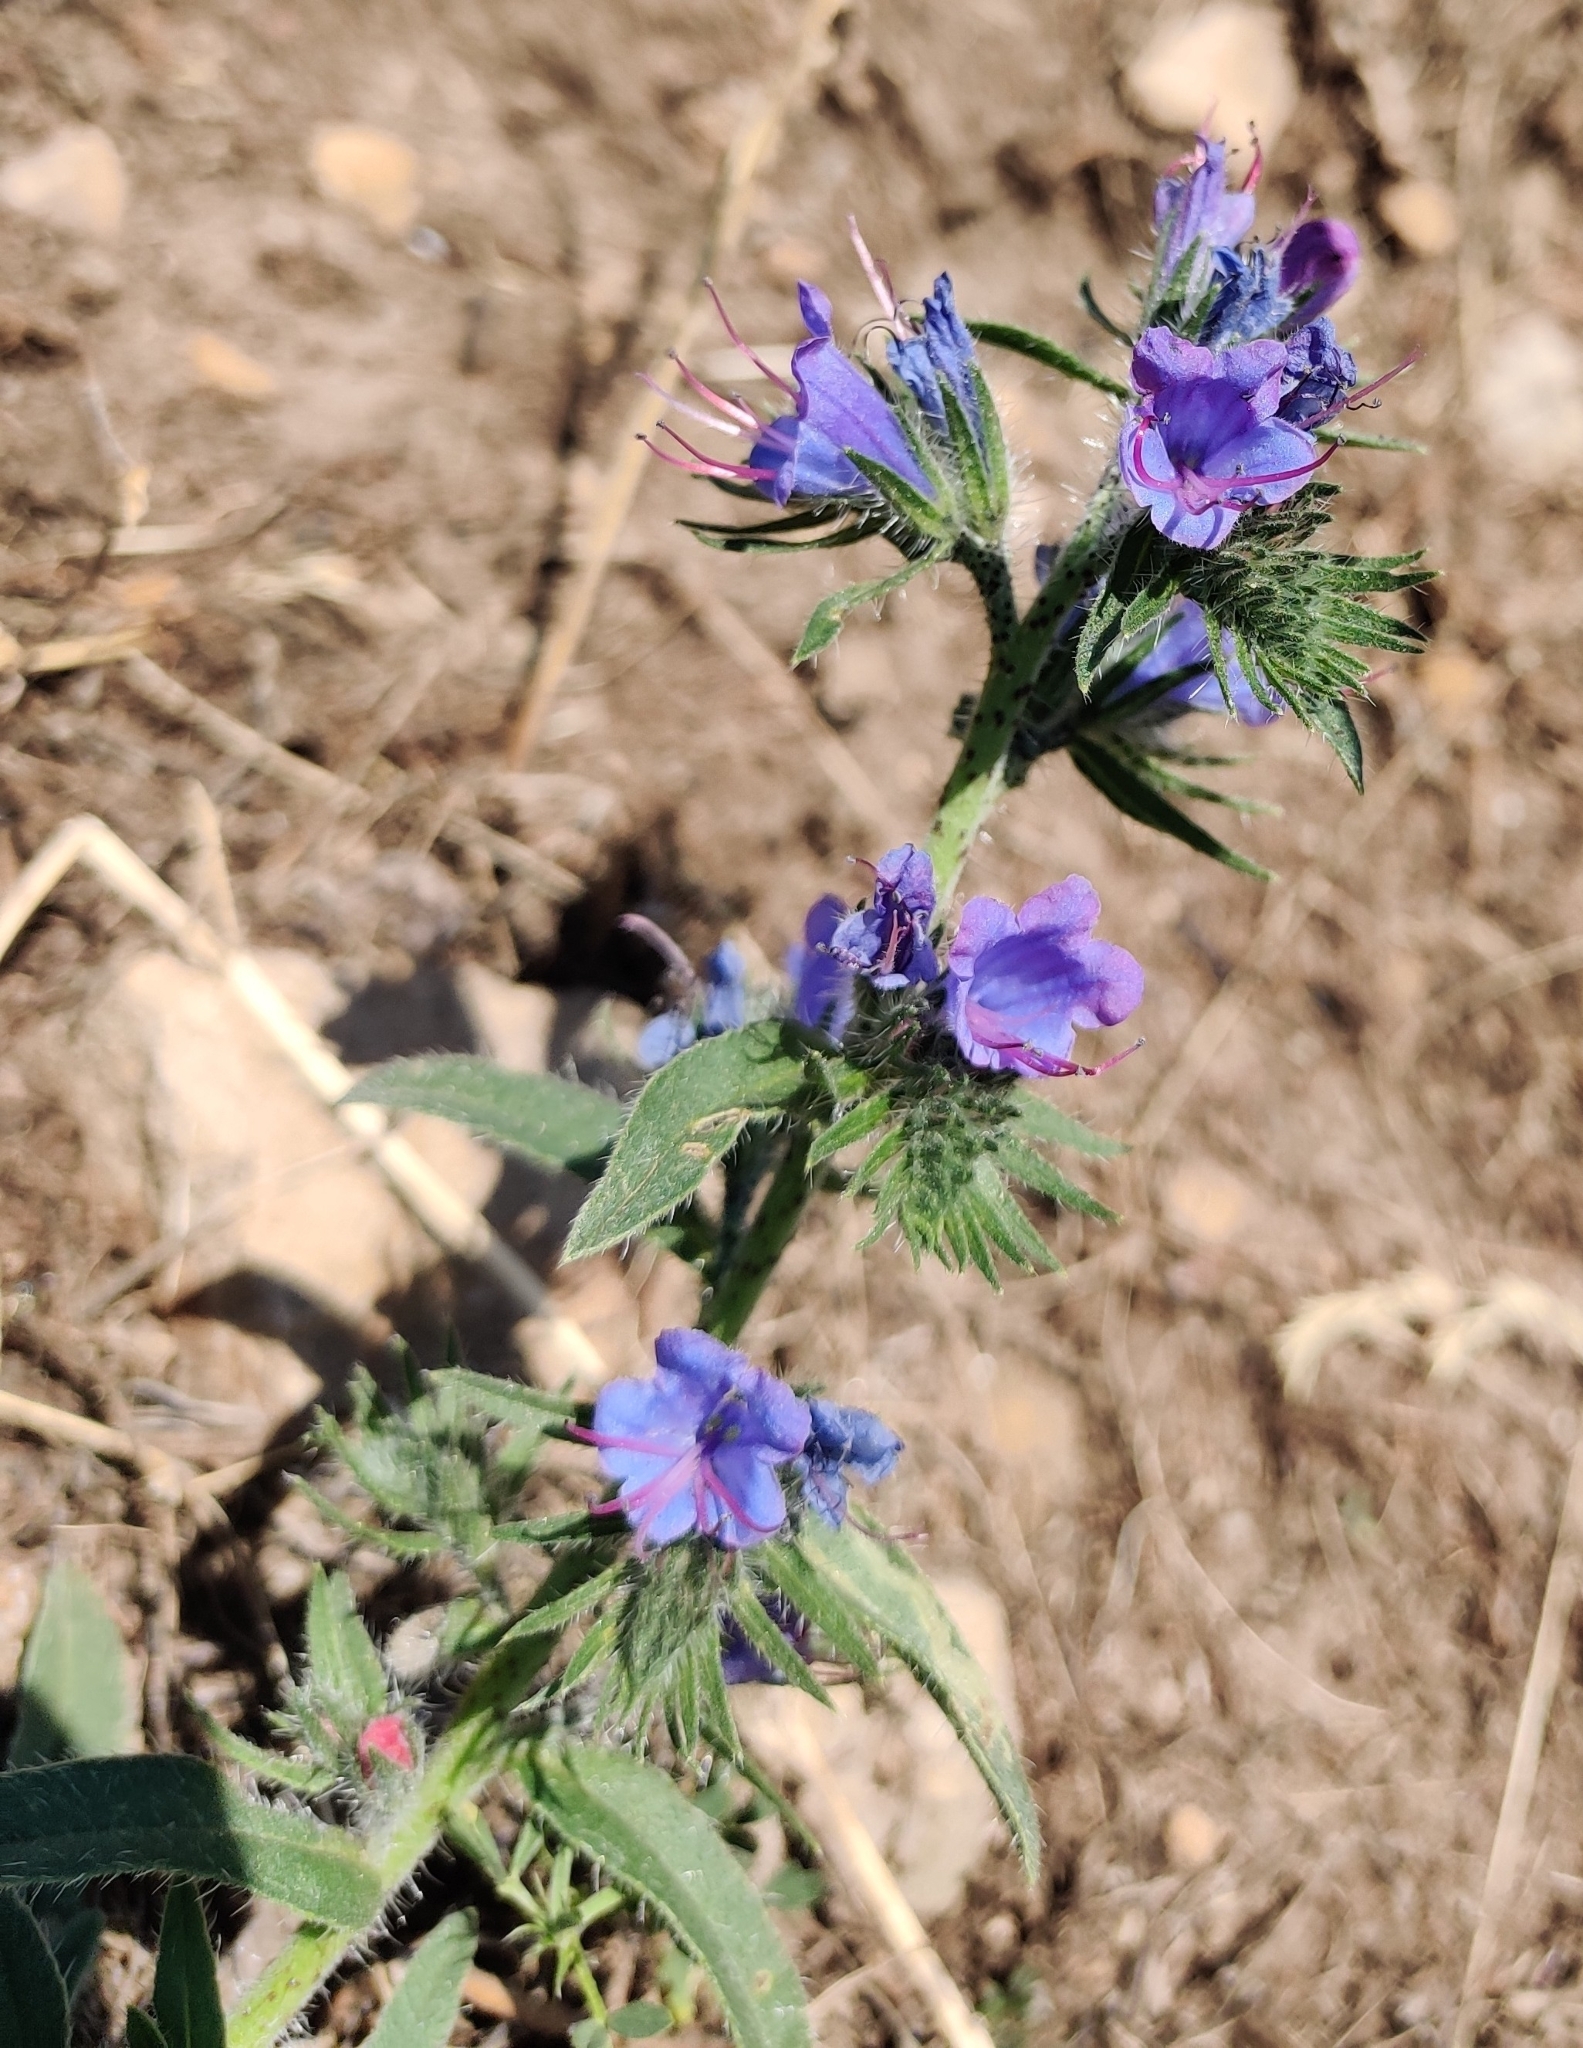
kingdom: Plantae
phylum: Tracheophyta
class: Magnoliopsida
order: Boraginales
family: Boraginaceae
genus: Echium
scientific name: Echium vulgare
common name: Common viper's bugloss
